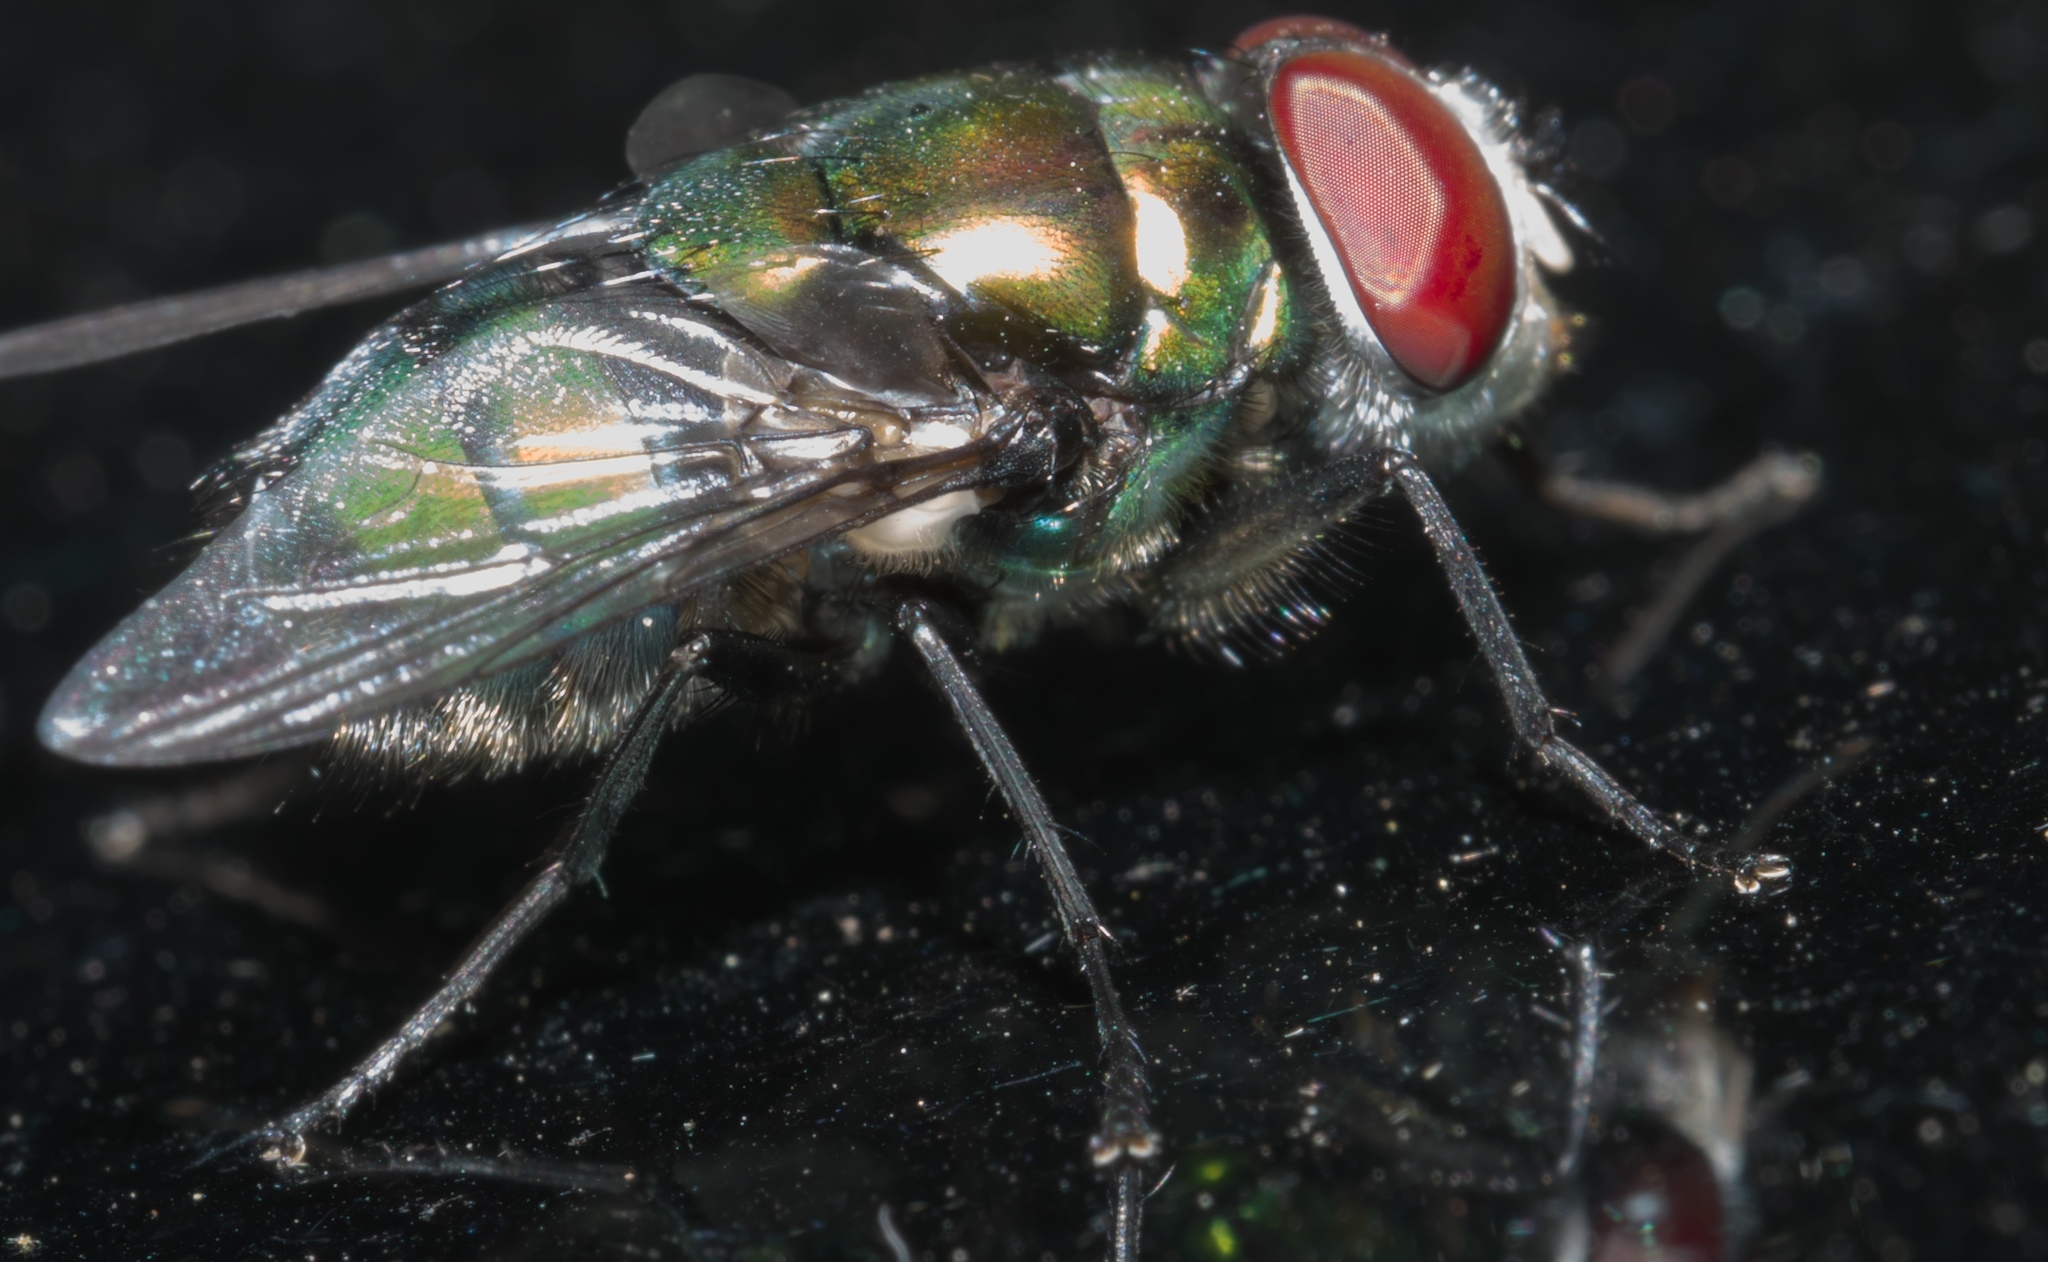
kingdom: Animalia
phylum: Arthropoda
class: Insecta
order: Diptera
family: Calliphoridae
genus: Chrysomya
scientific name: Chrysomya rufifacies
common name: Blow fly
